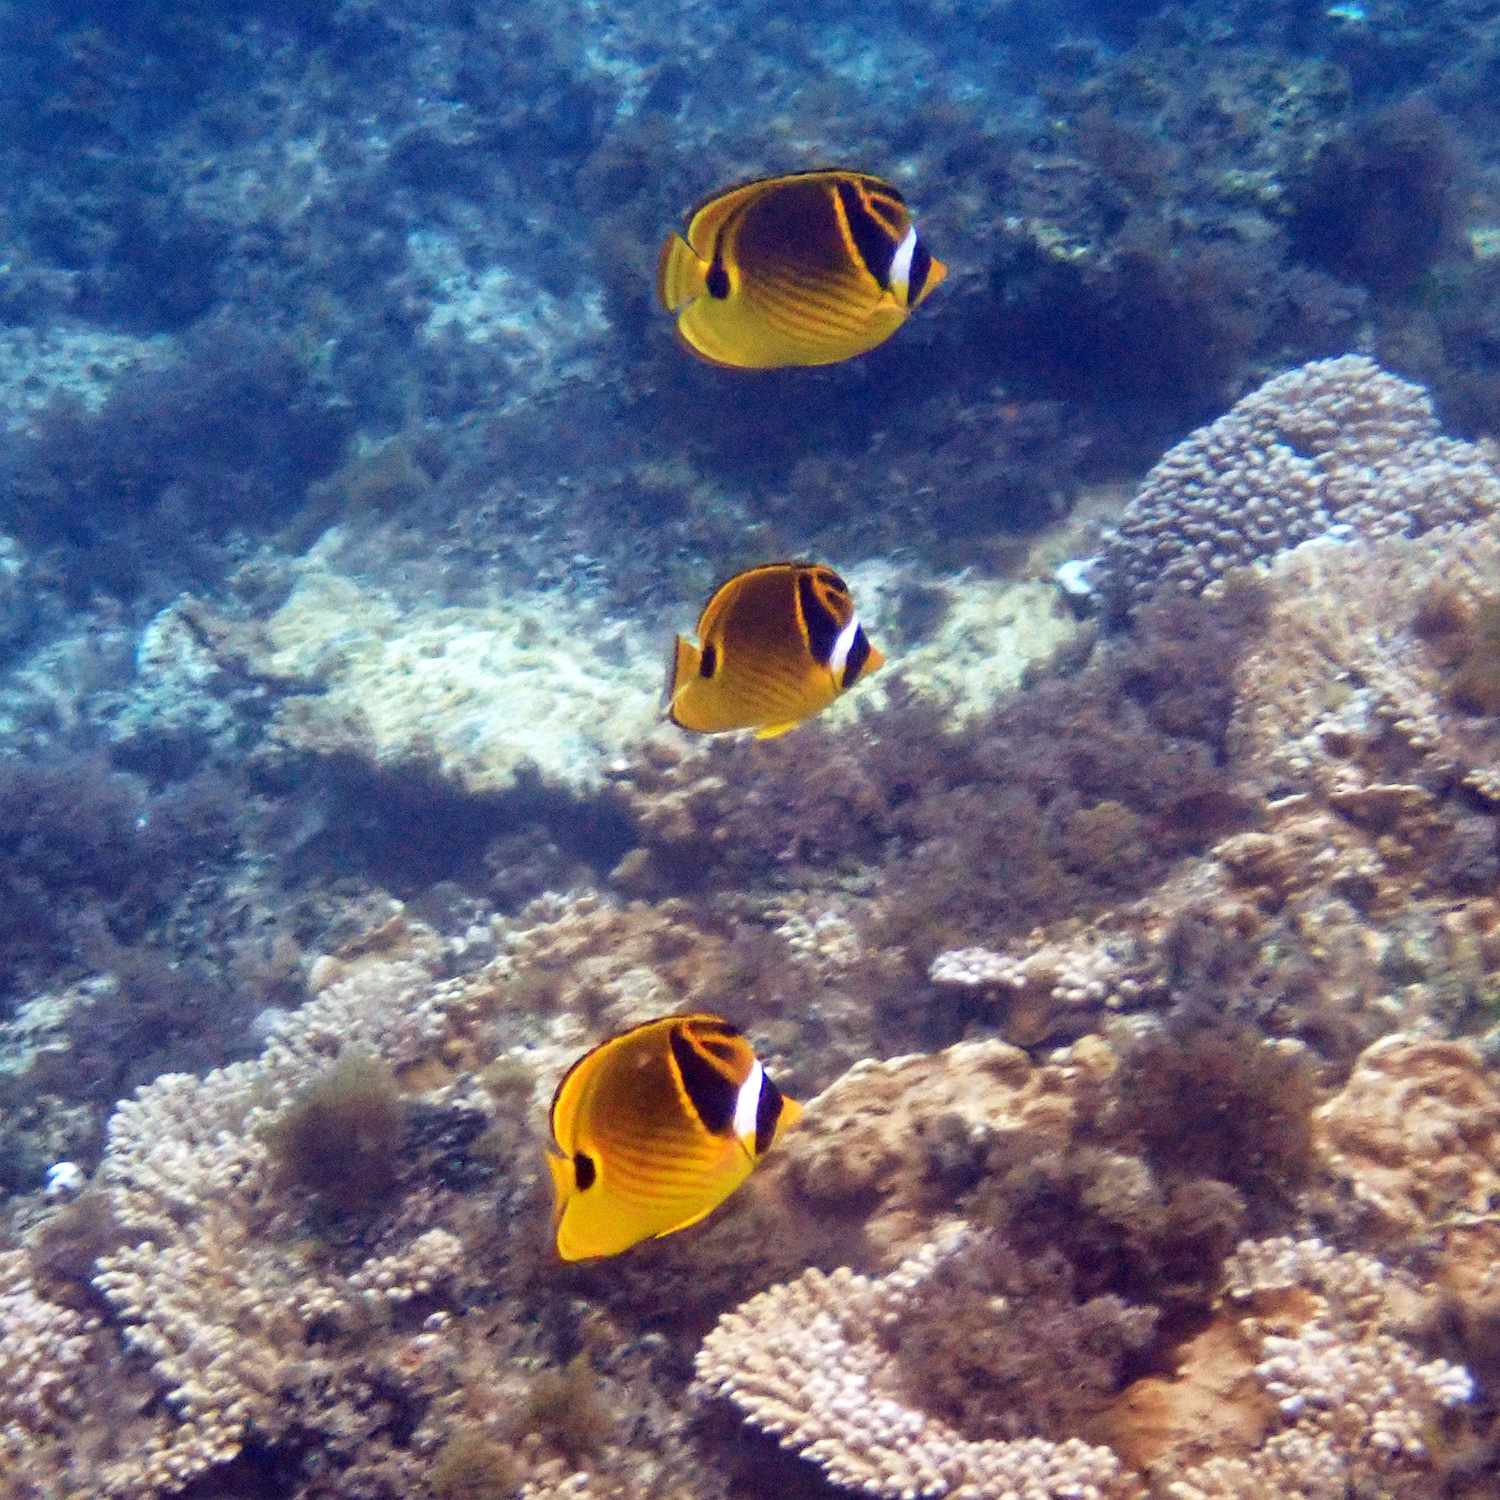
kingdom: Animalia
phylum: Chordata
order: Perciformes
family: Chaetodontidae
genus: Chaetodon
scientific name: Chaetodon lunula
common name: Raccoon butterflyfish
